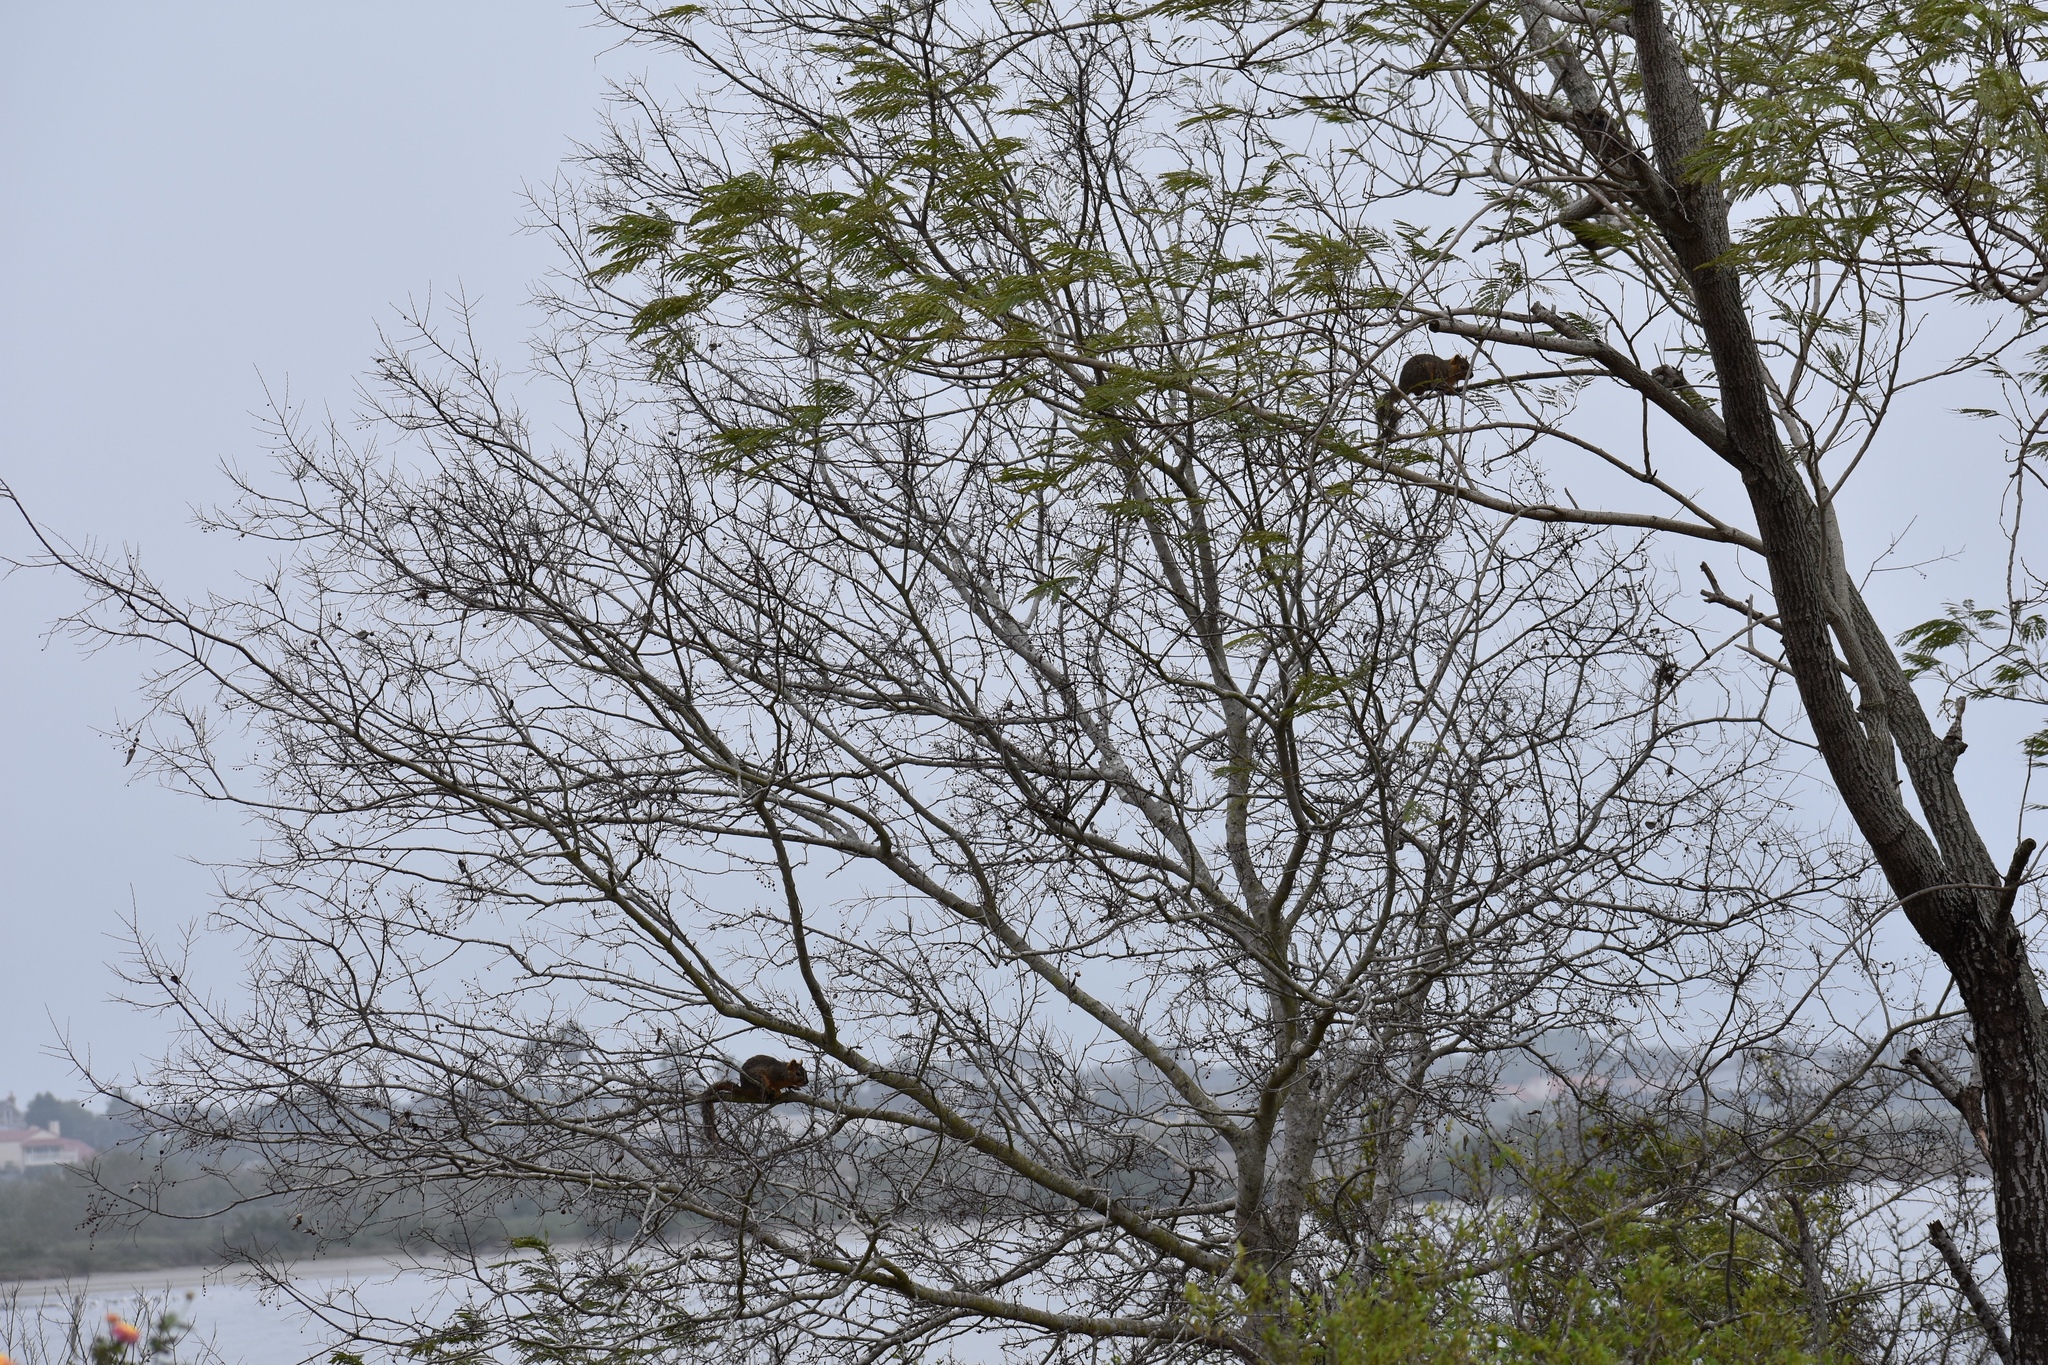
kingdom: Animalia
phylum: Chordata
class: Mammalia
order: Rodentia
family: Sciuridae
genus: Sciurus
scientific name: Sciurus niger
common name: Fox squirrel
